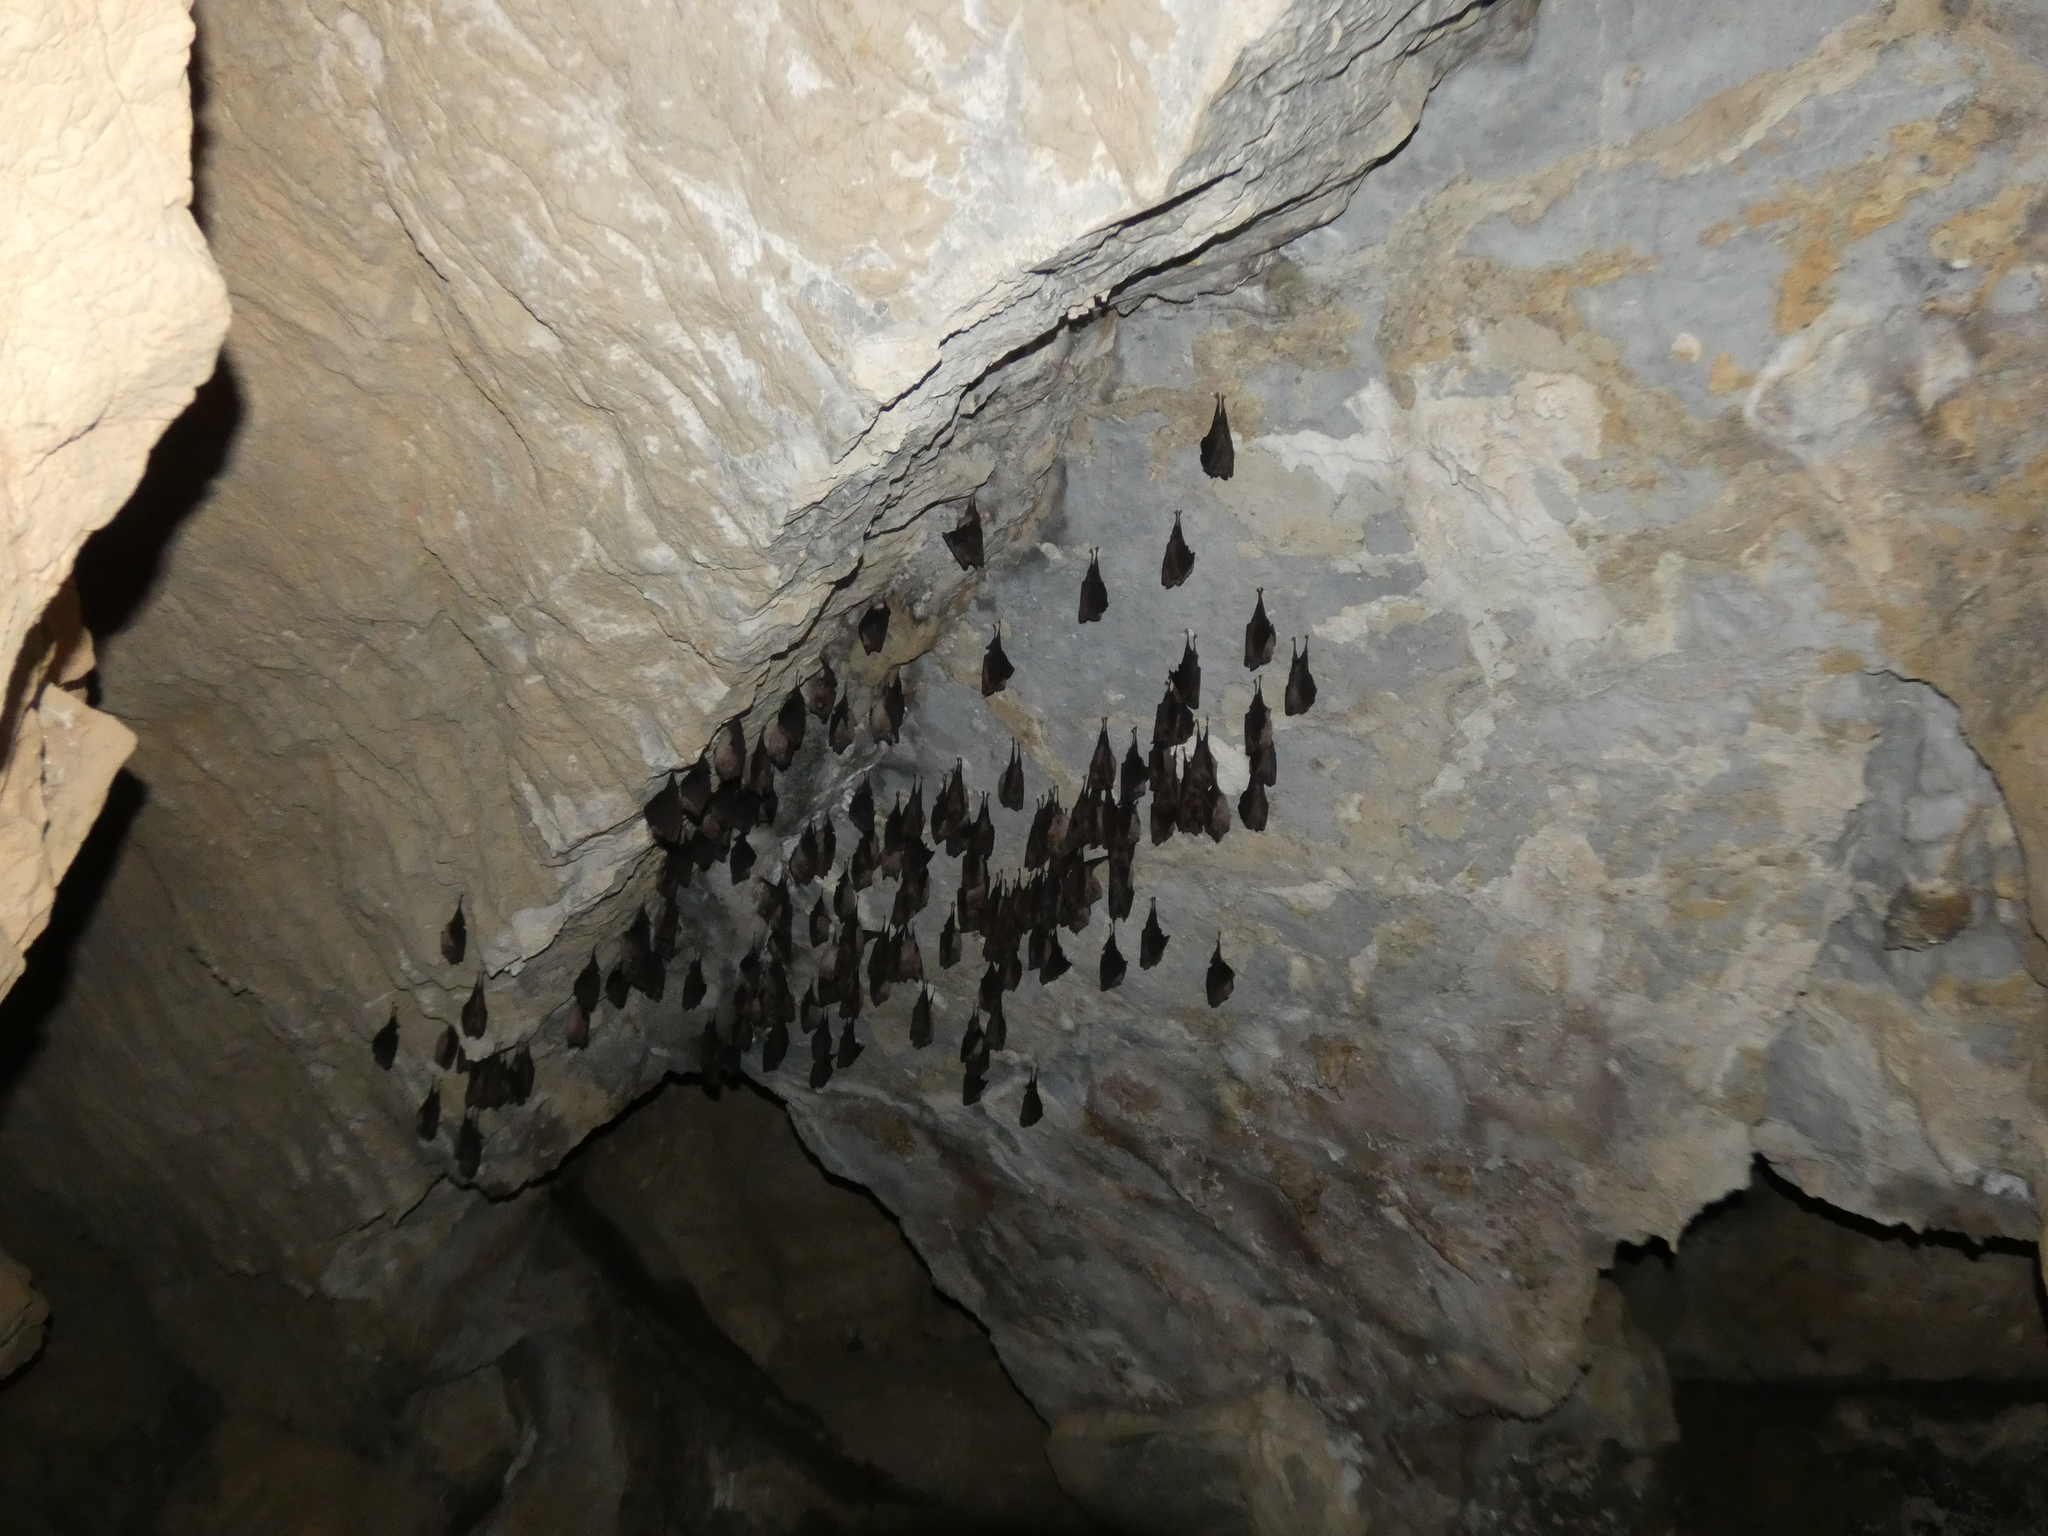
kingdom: Animalia
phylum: Chordata
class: Mammalia
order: Chiroptera
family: Rhinolophidae
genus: Rhinolophus
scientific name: Rhinolophus ferrumequinum
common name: Greater horseshoe bat
